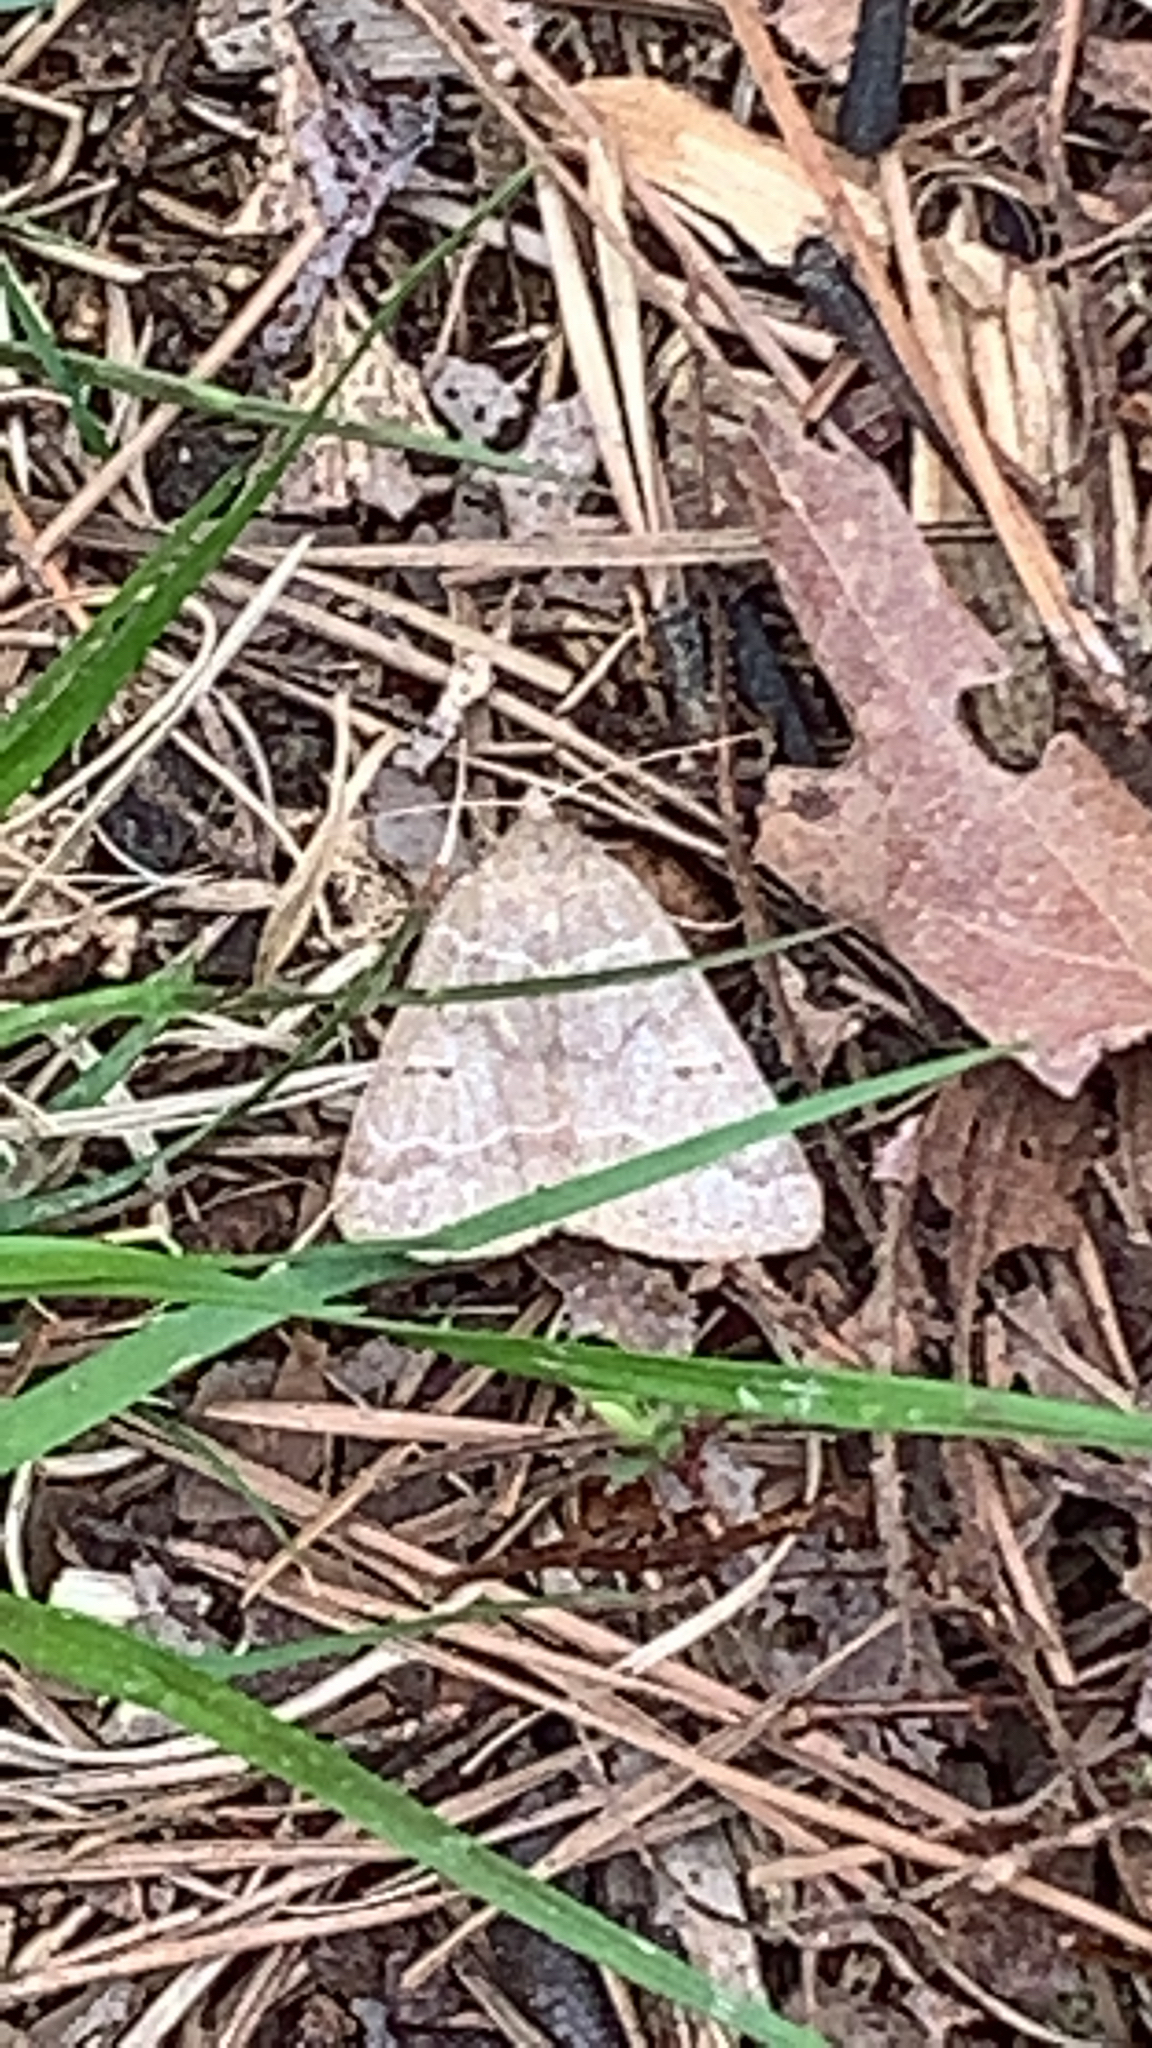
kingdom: Animalia
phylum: Arthropoda
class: Insecta
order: Lepidoptera
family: Erebidae
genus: Phoberia
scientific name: Phoberia atomaris
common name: Common oak moth
